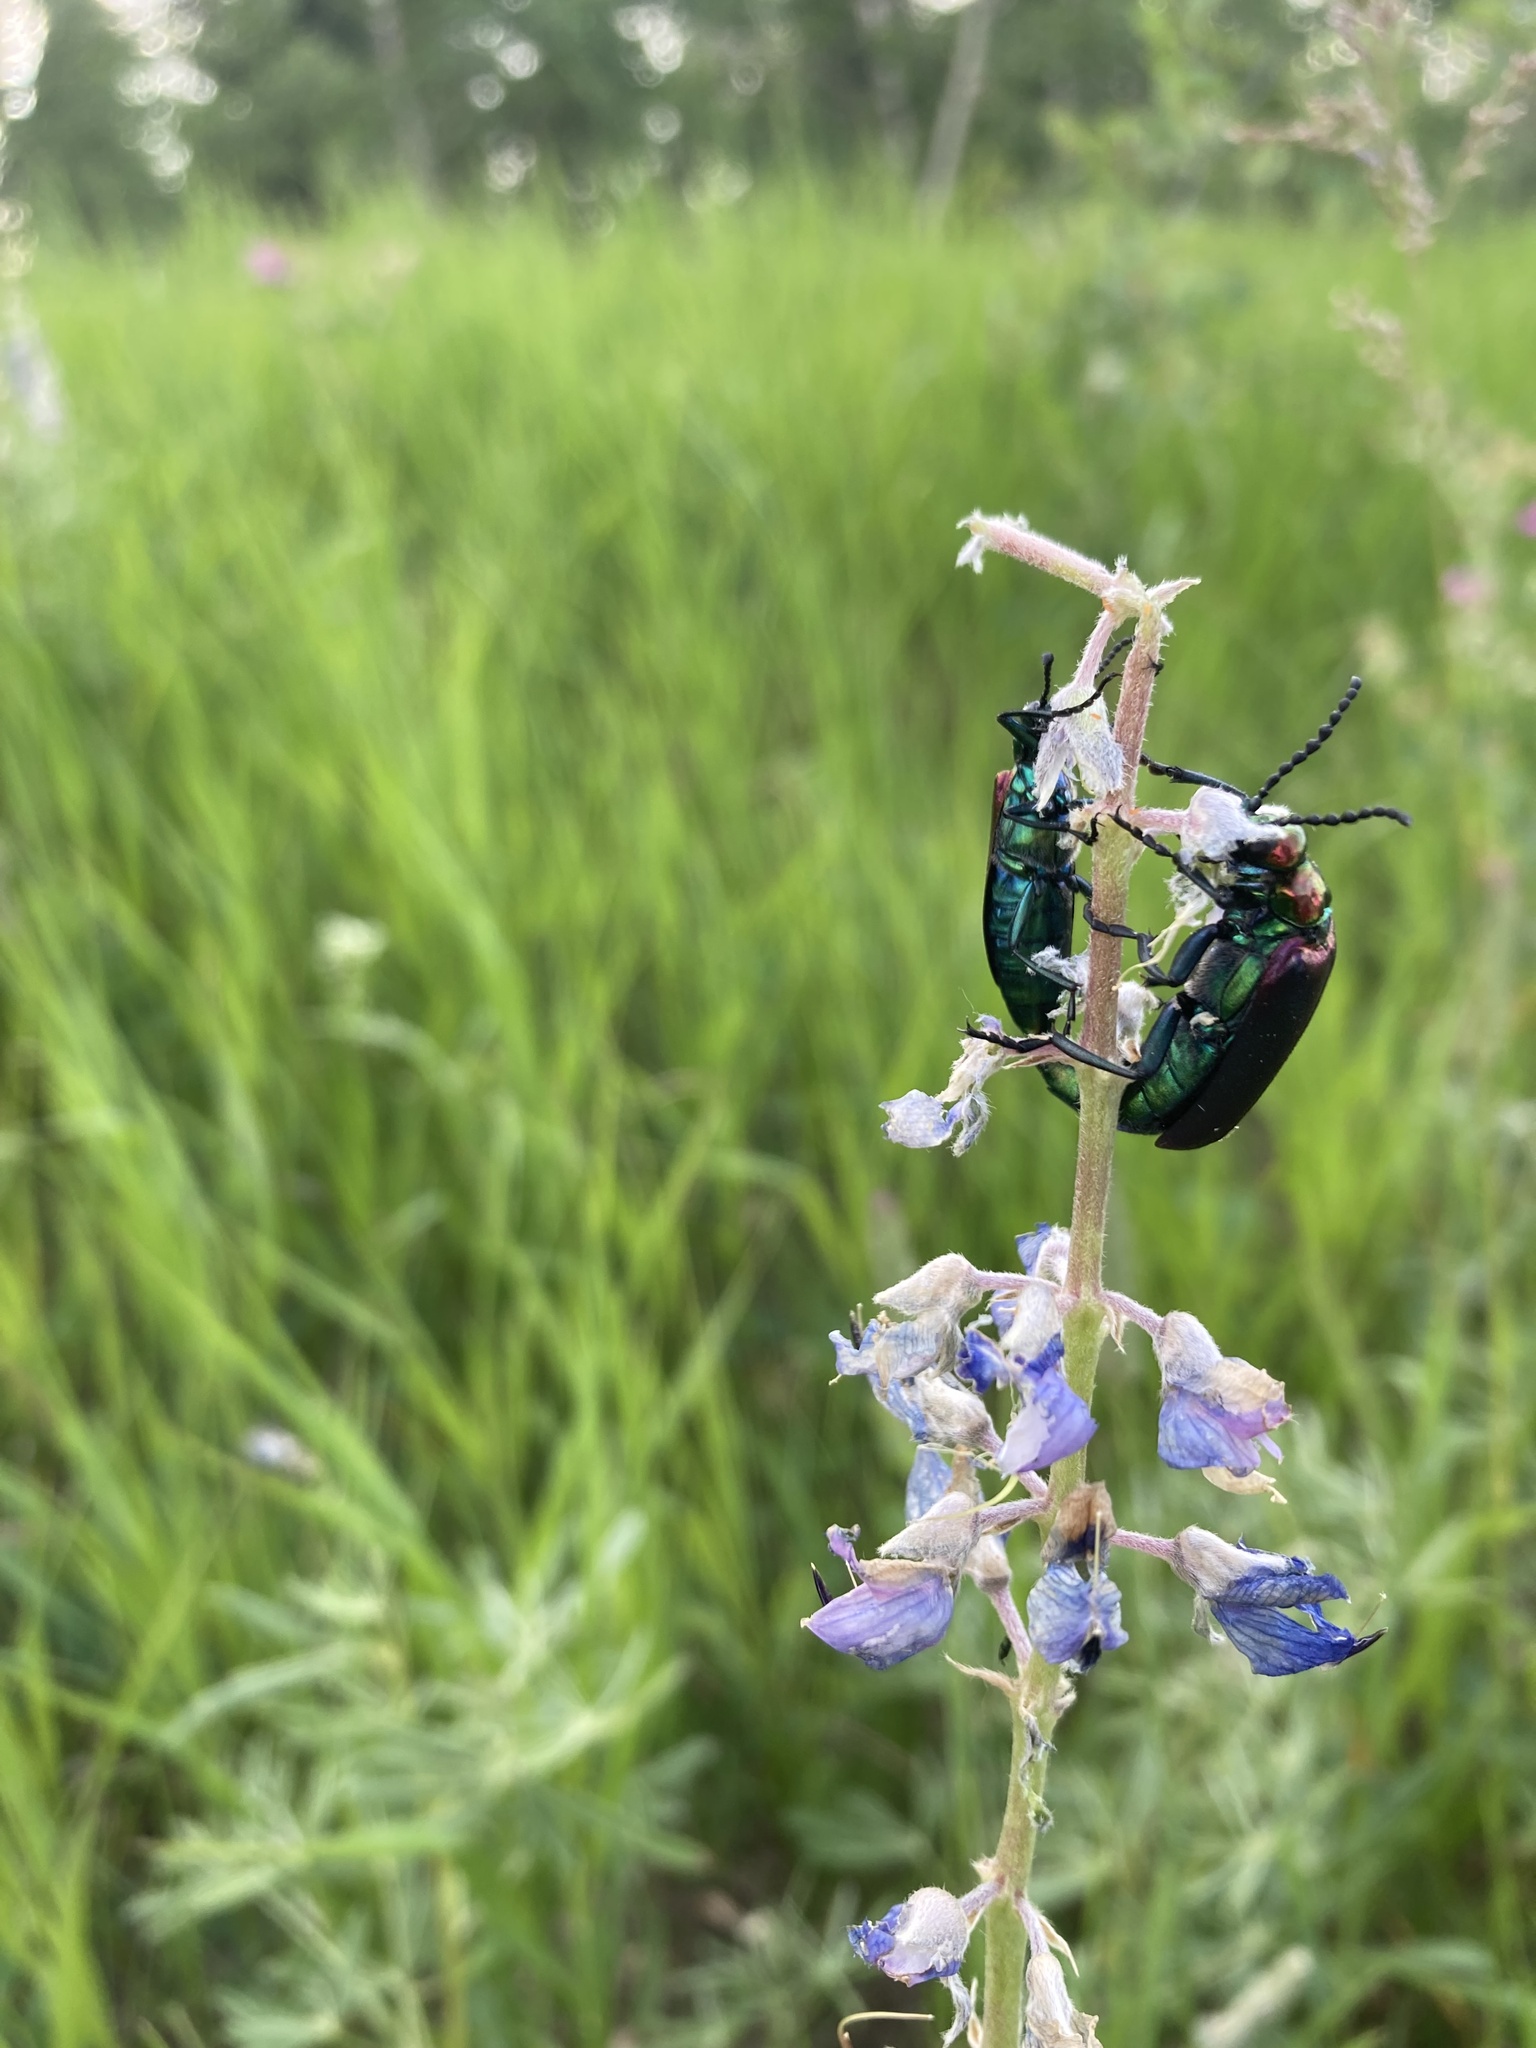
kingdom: Animalia
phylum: Arthropoda
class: Insecta
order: Coleoptera
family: Meloidae
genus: Lytta
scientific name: Lytta nuttallii
